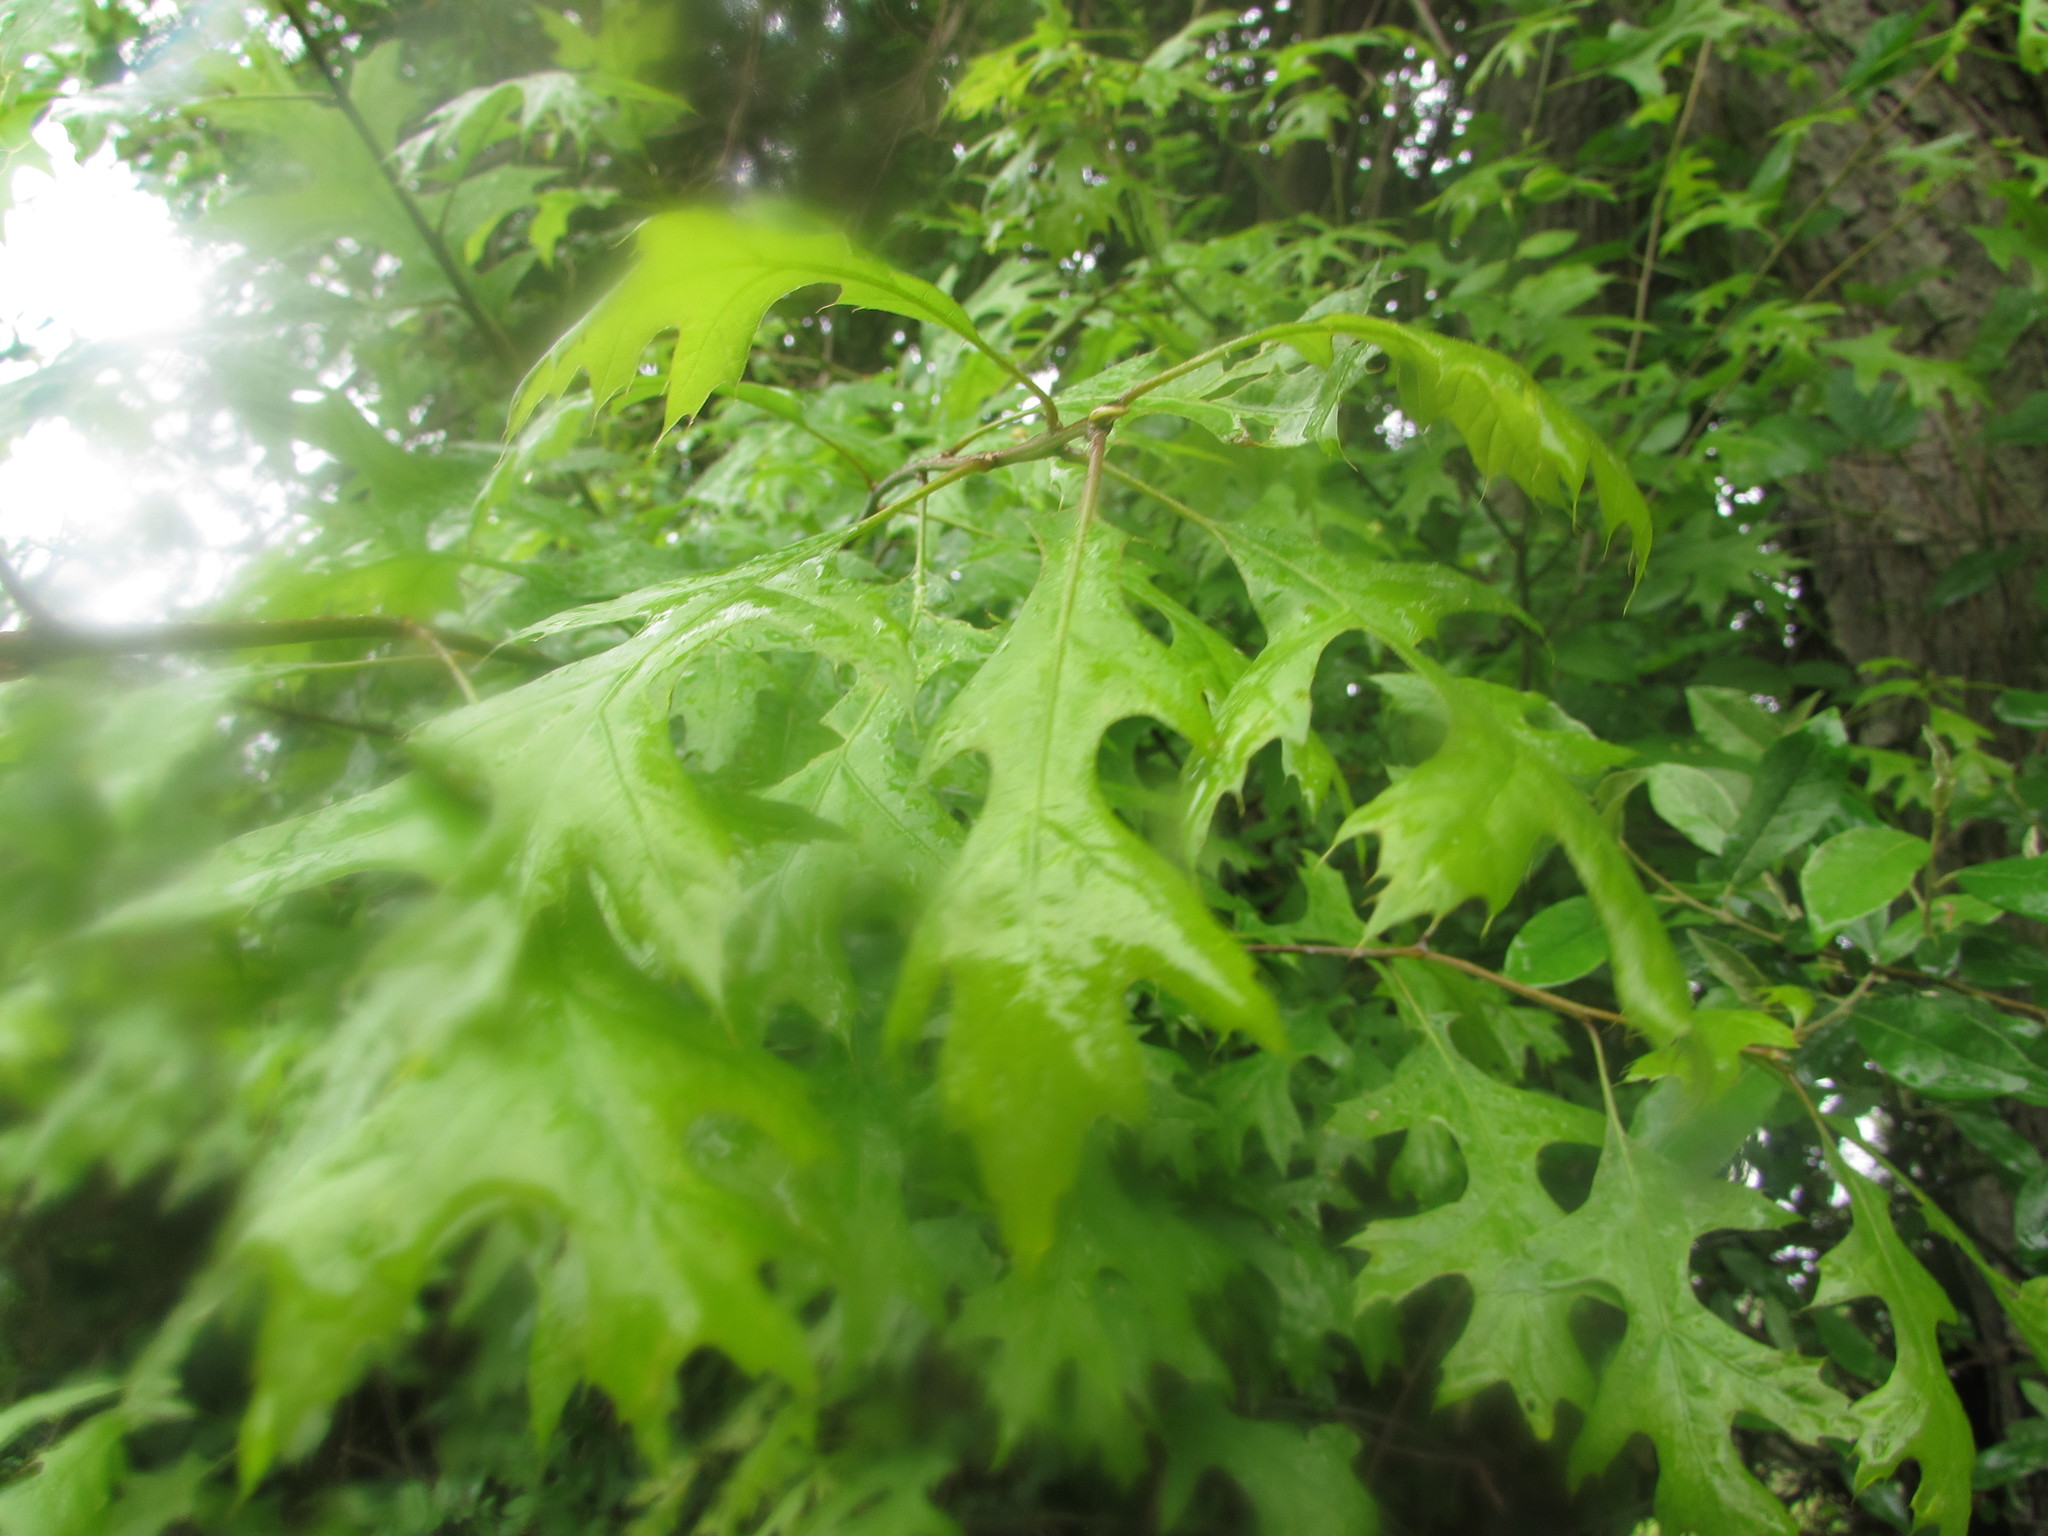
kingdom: Plantae
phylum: Tracheophyta
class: Magnoliopsida
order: Fagales
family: Fagaceae
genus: Quercus
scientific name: Quercus palustris
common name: Pin oak
